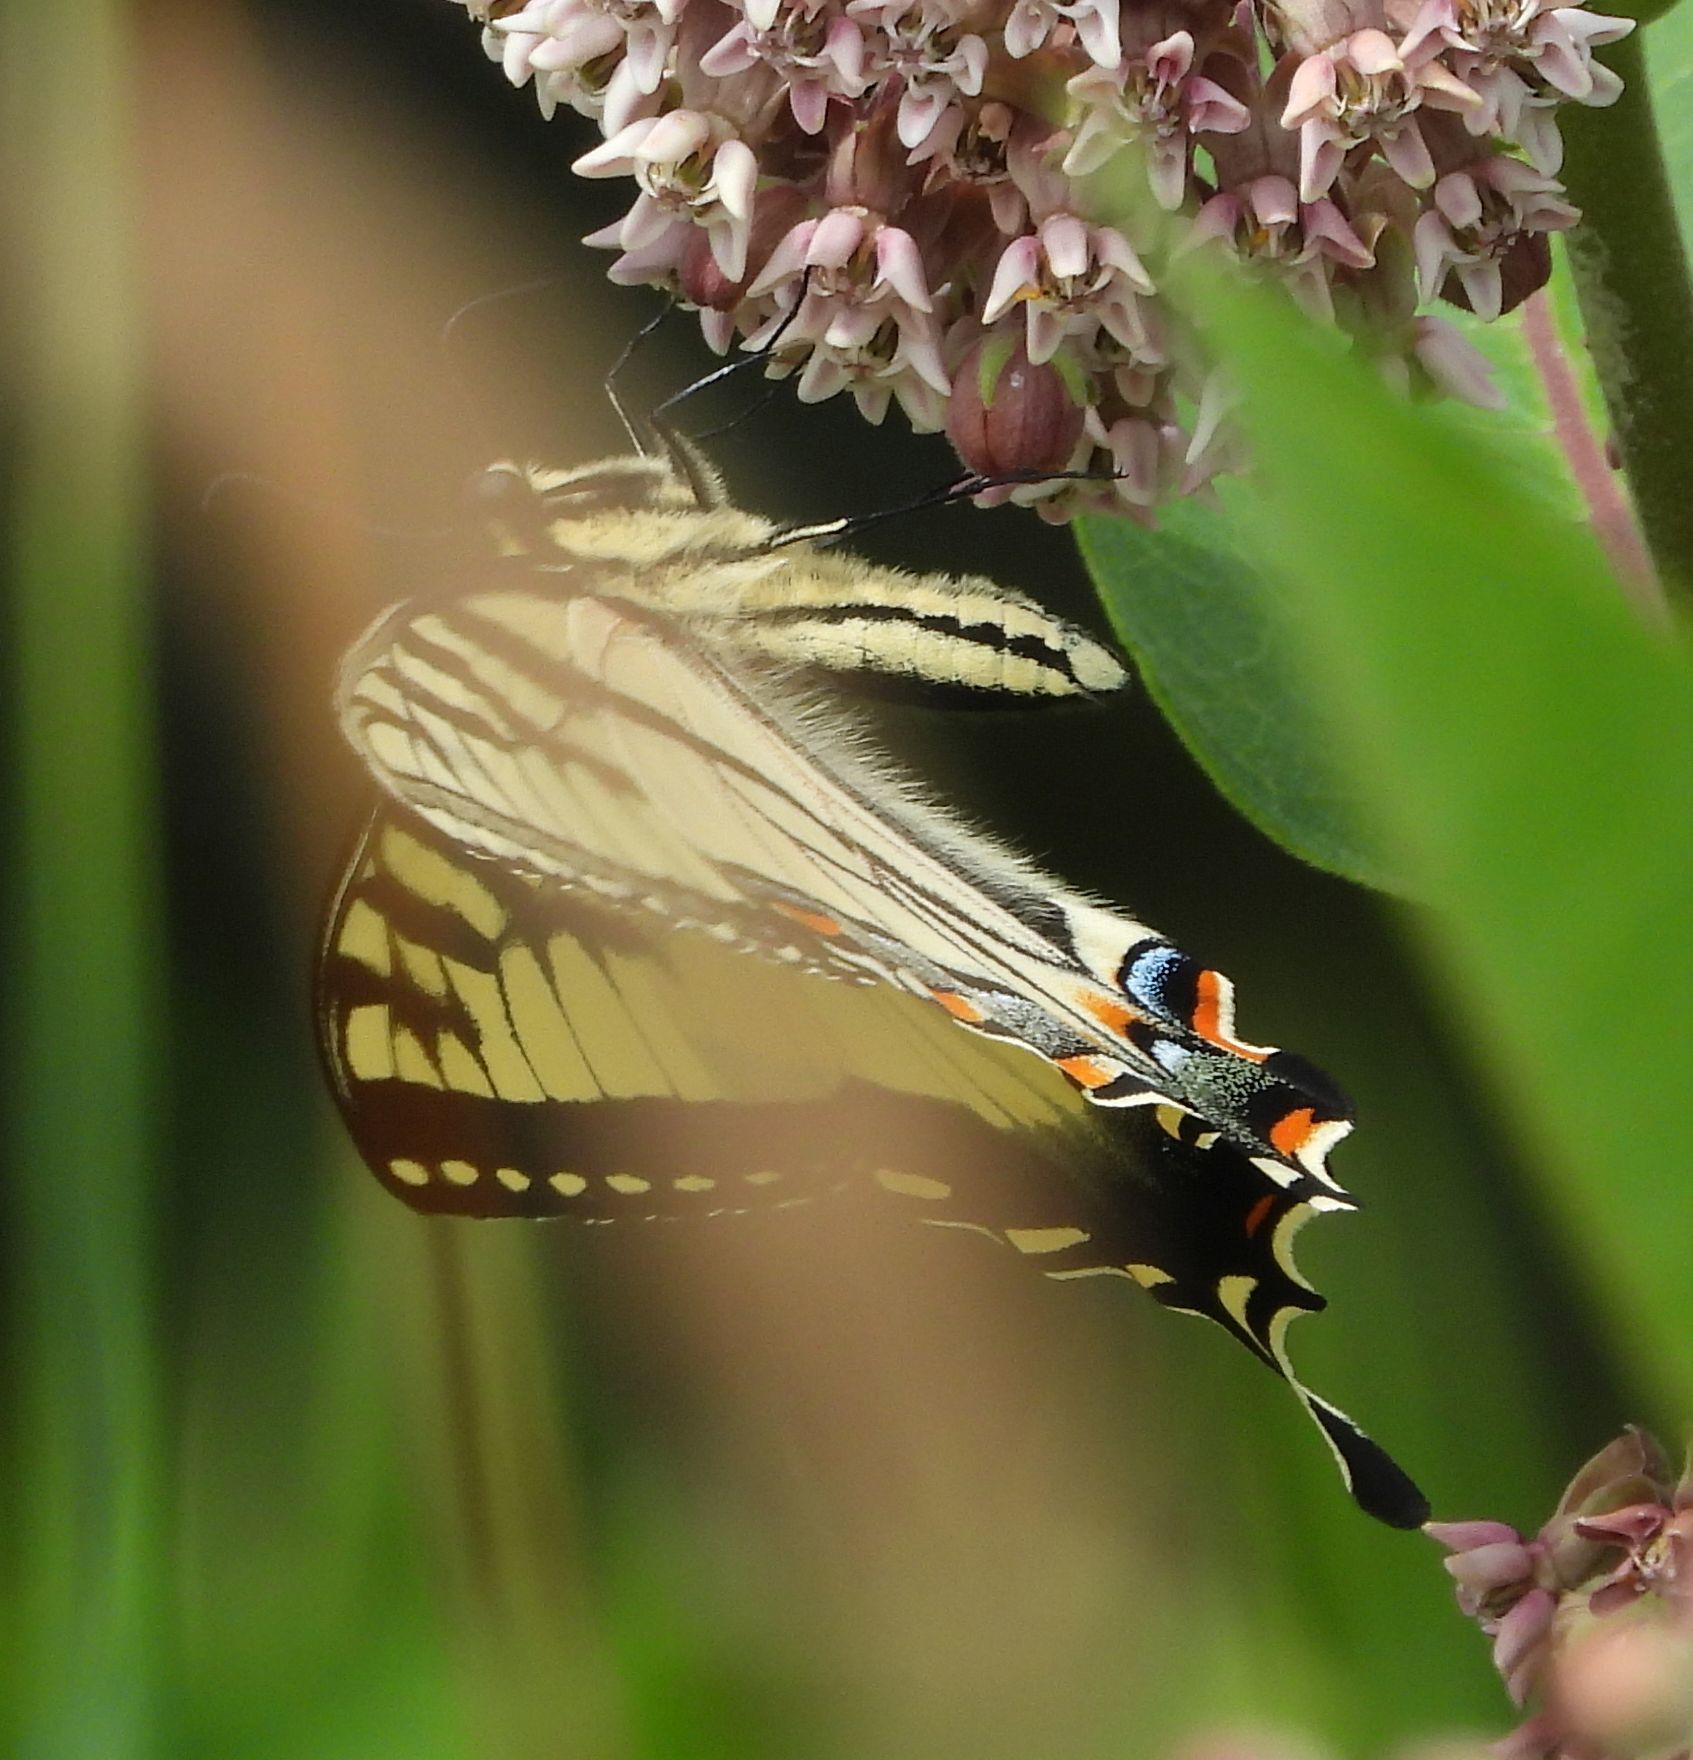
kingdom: Animalia
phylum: Arthropoda
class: Insecta
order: Lepidoptera
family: Papilionidae
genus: Papilio
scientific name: Papilio
